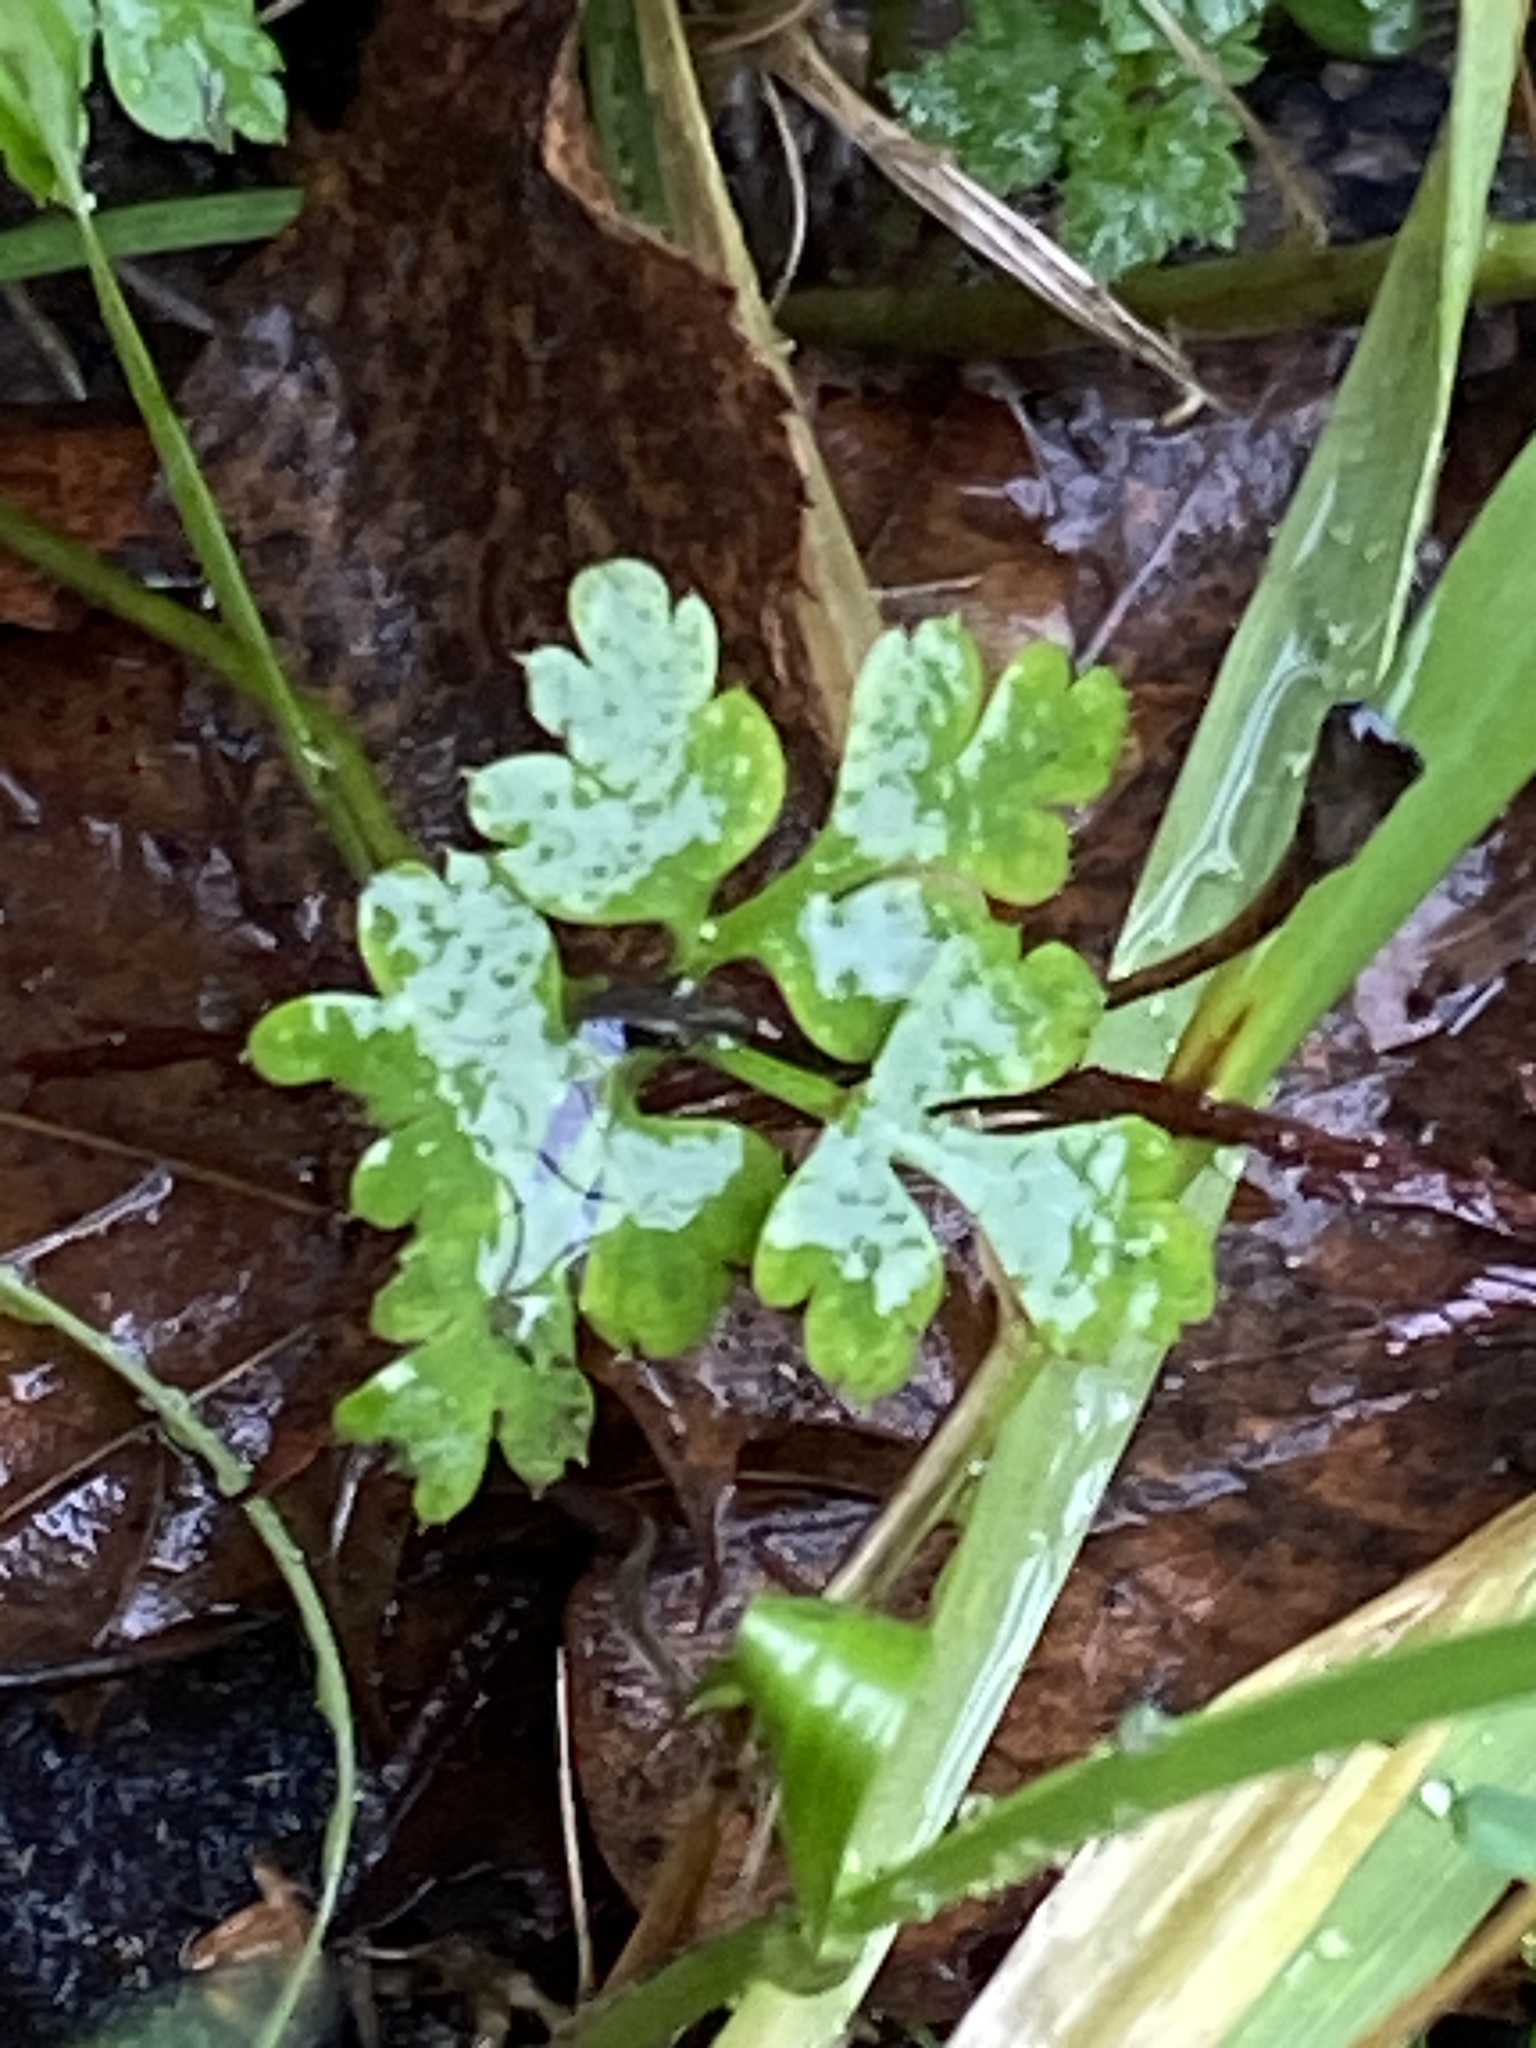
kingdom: Plantae
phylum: Tracheophyta
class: Magnoliopsida
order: Geraniales
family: Geraniaceae
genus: Geranium
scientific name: Geranium robertianum
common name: Herb-robert
